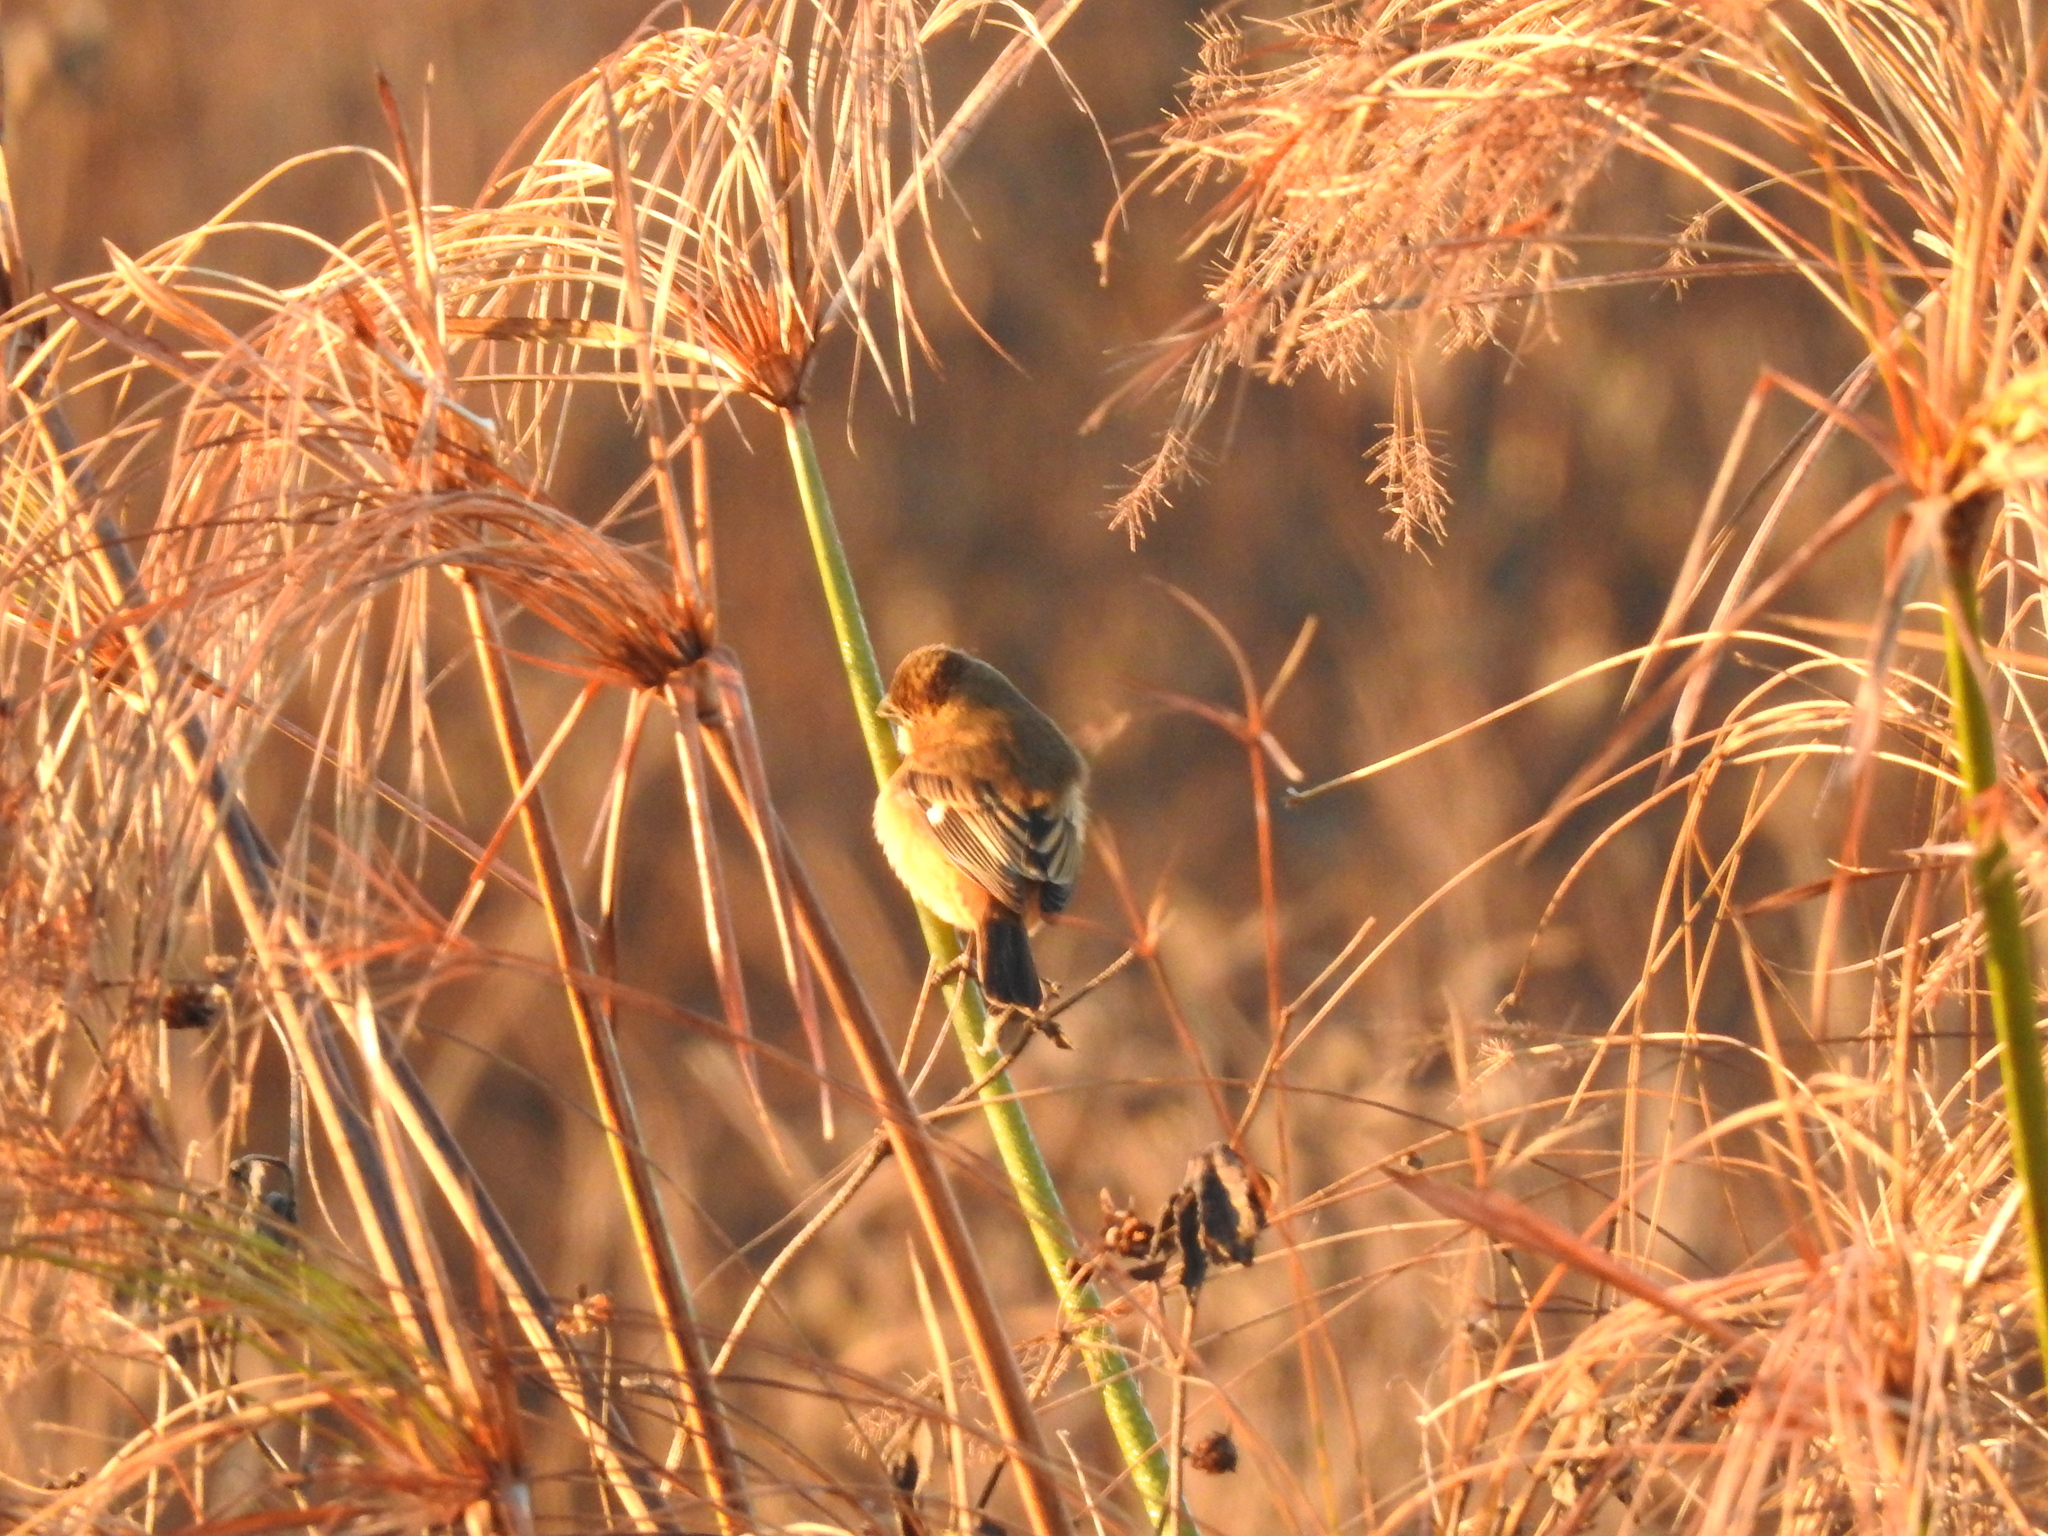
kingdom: Animalia
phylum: Chordata
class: Aves
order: Passeriformes
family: Thraupidae
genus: Sporophila
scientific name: Sporophila collaris
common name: Rusty-collared seedeater
